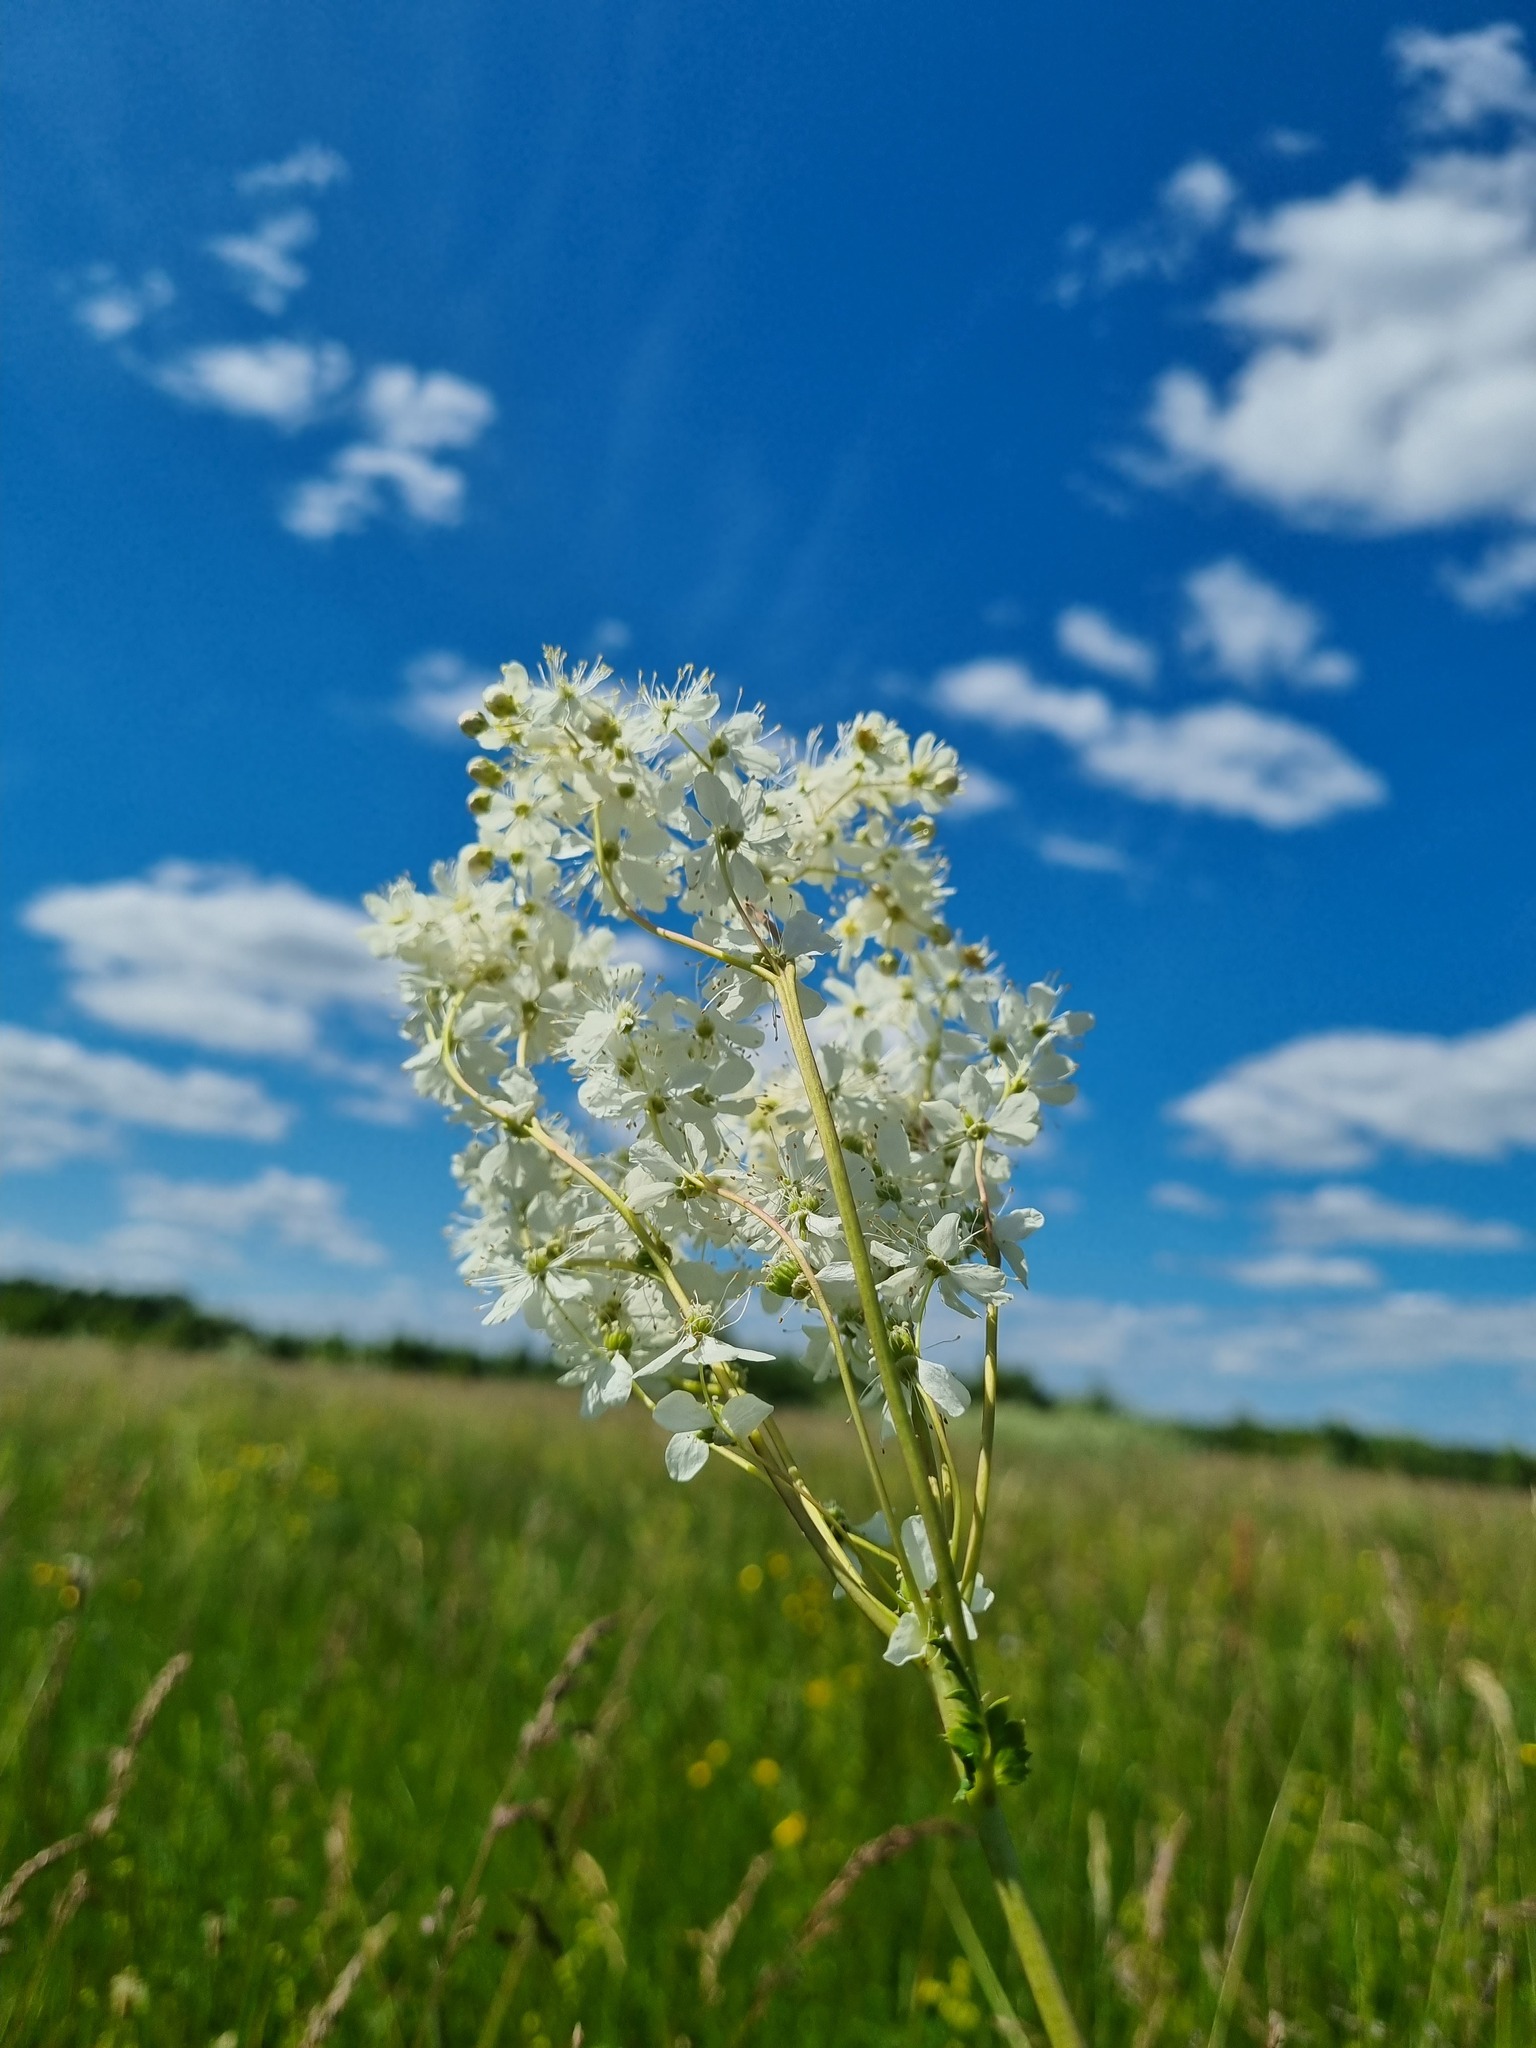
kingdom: Plantae
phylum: Tracheophyta
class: Magnoliopsida
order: Rosales
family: Rosaceae
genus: Filipendula
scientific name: Filipendula vulgaris
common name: Dropwort
